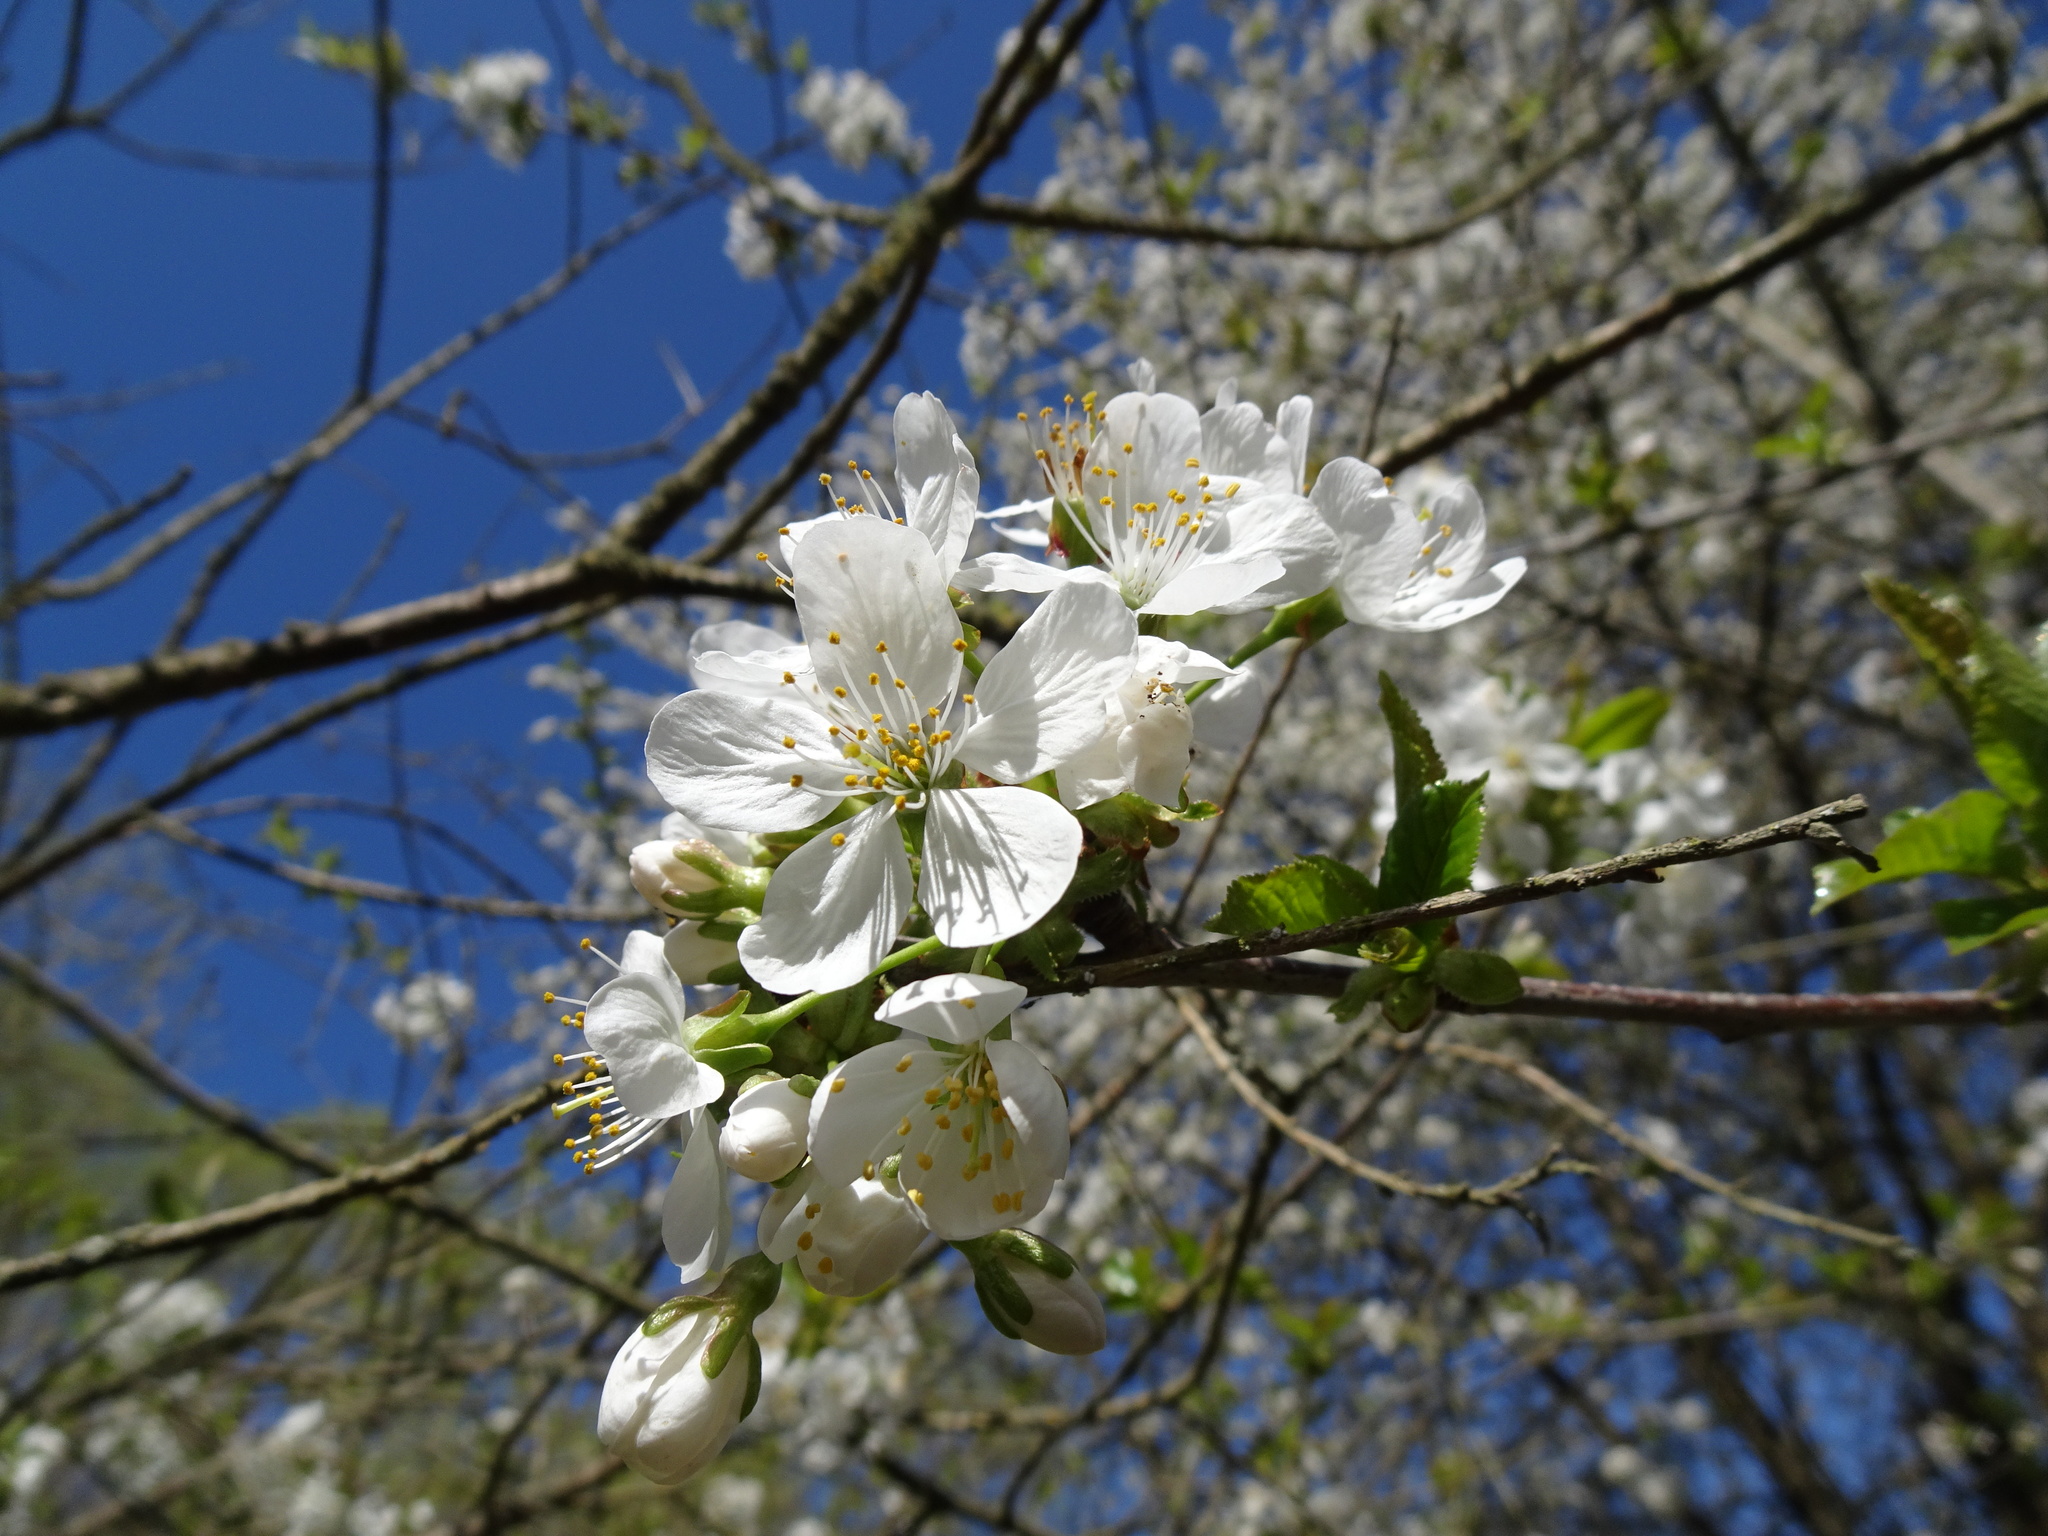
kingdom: Plantae
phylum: Tracheophyta
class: Magnoliopsida
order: Rosales
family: Rosaceae
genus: Prunus
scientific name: Prunus avium
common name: Sweet cherry
